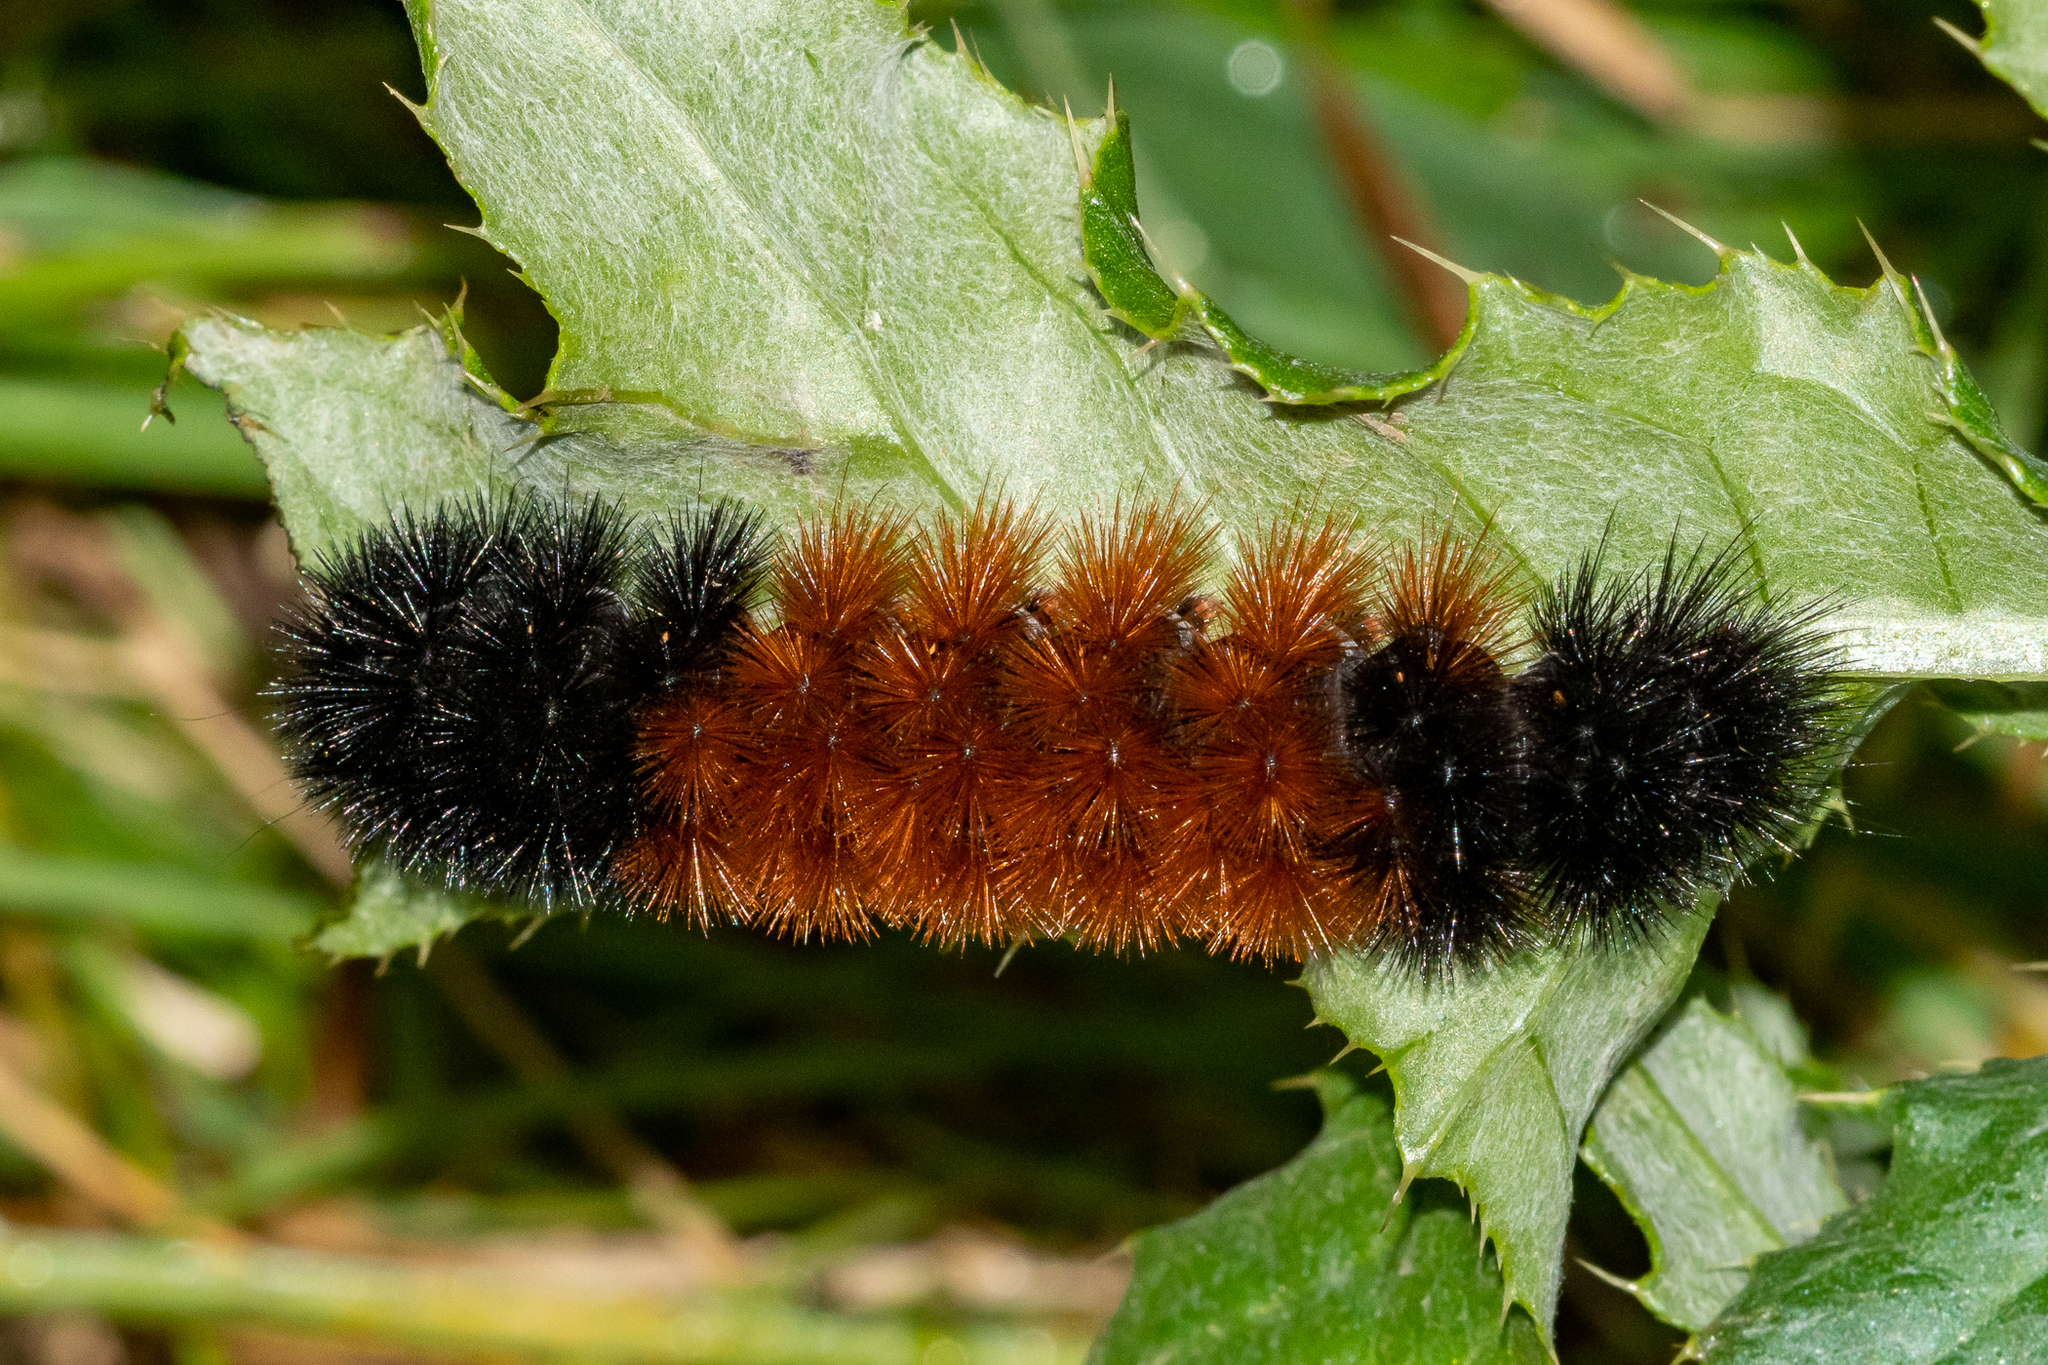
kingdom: Animalia
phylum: Arthropoda
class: Insecta
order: Lepidoptera
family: Erebidae
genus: Pyrrharctia
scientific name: Pyrrharctia isabella
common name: Isabella tiger moth
